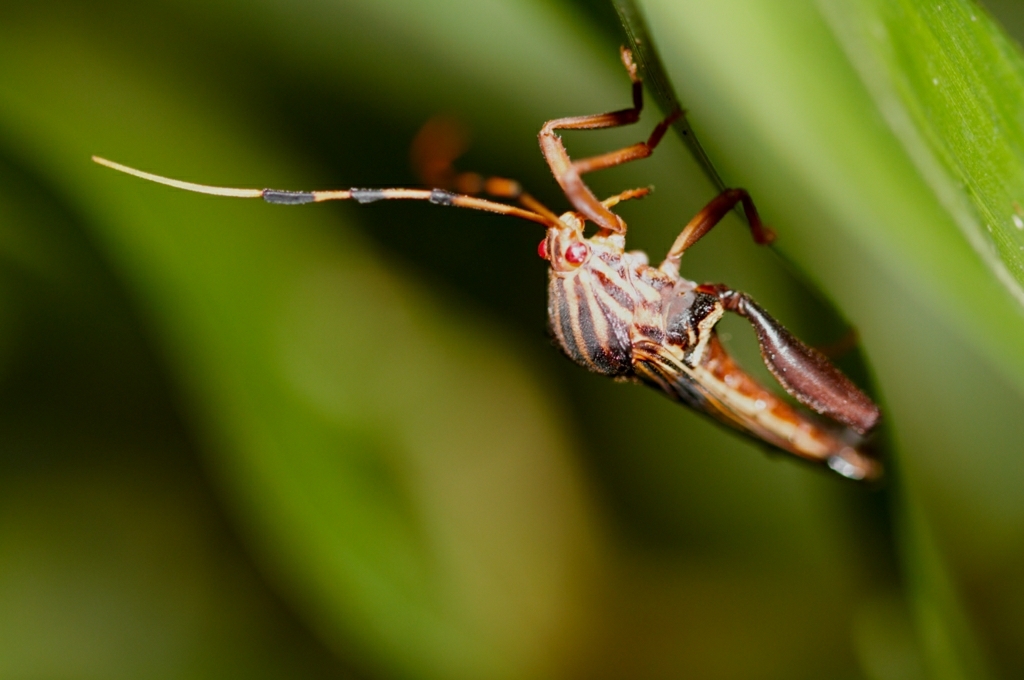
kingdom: Animalia
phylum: Arthropoda
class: Insecta
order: Hemiptera
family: Coreidae
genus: Spathophora
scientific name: Spathophora biclavata
